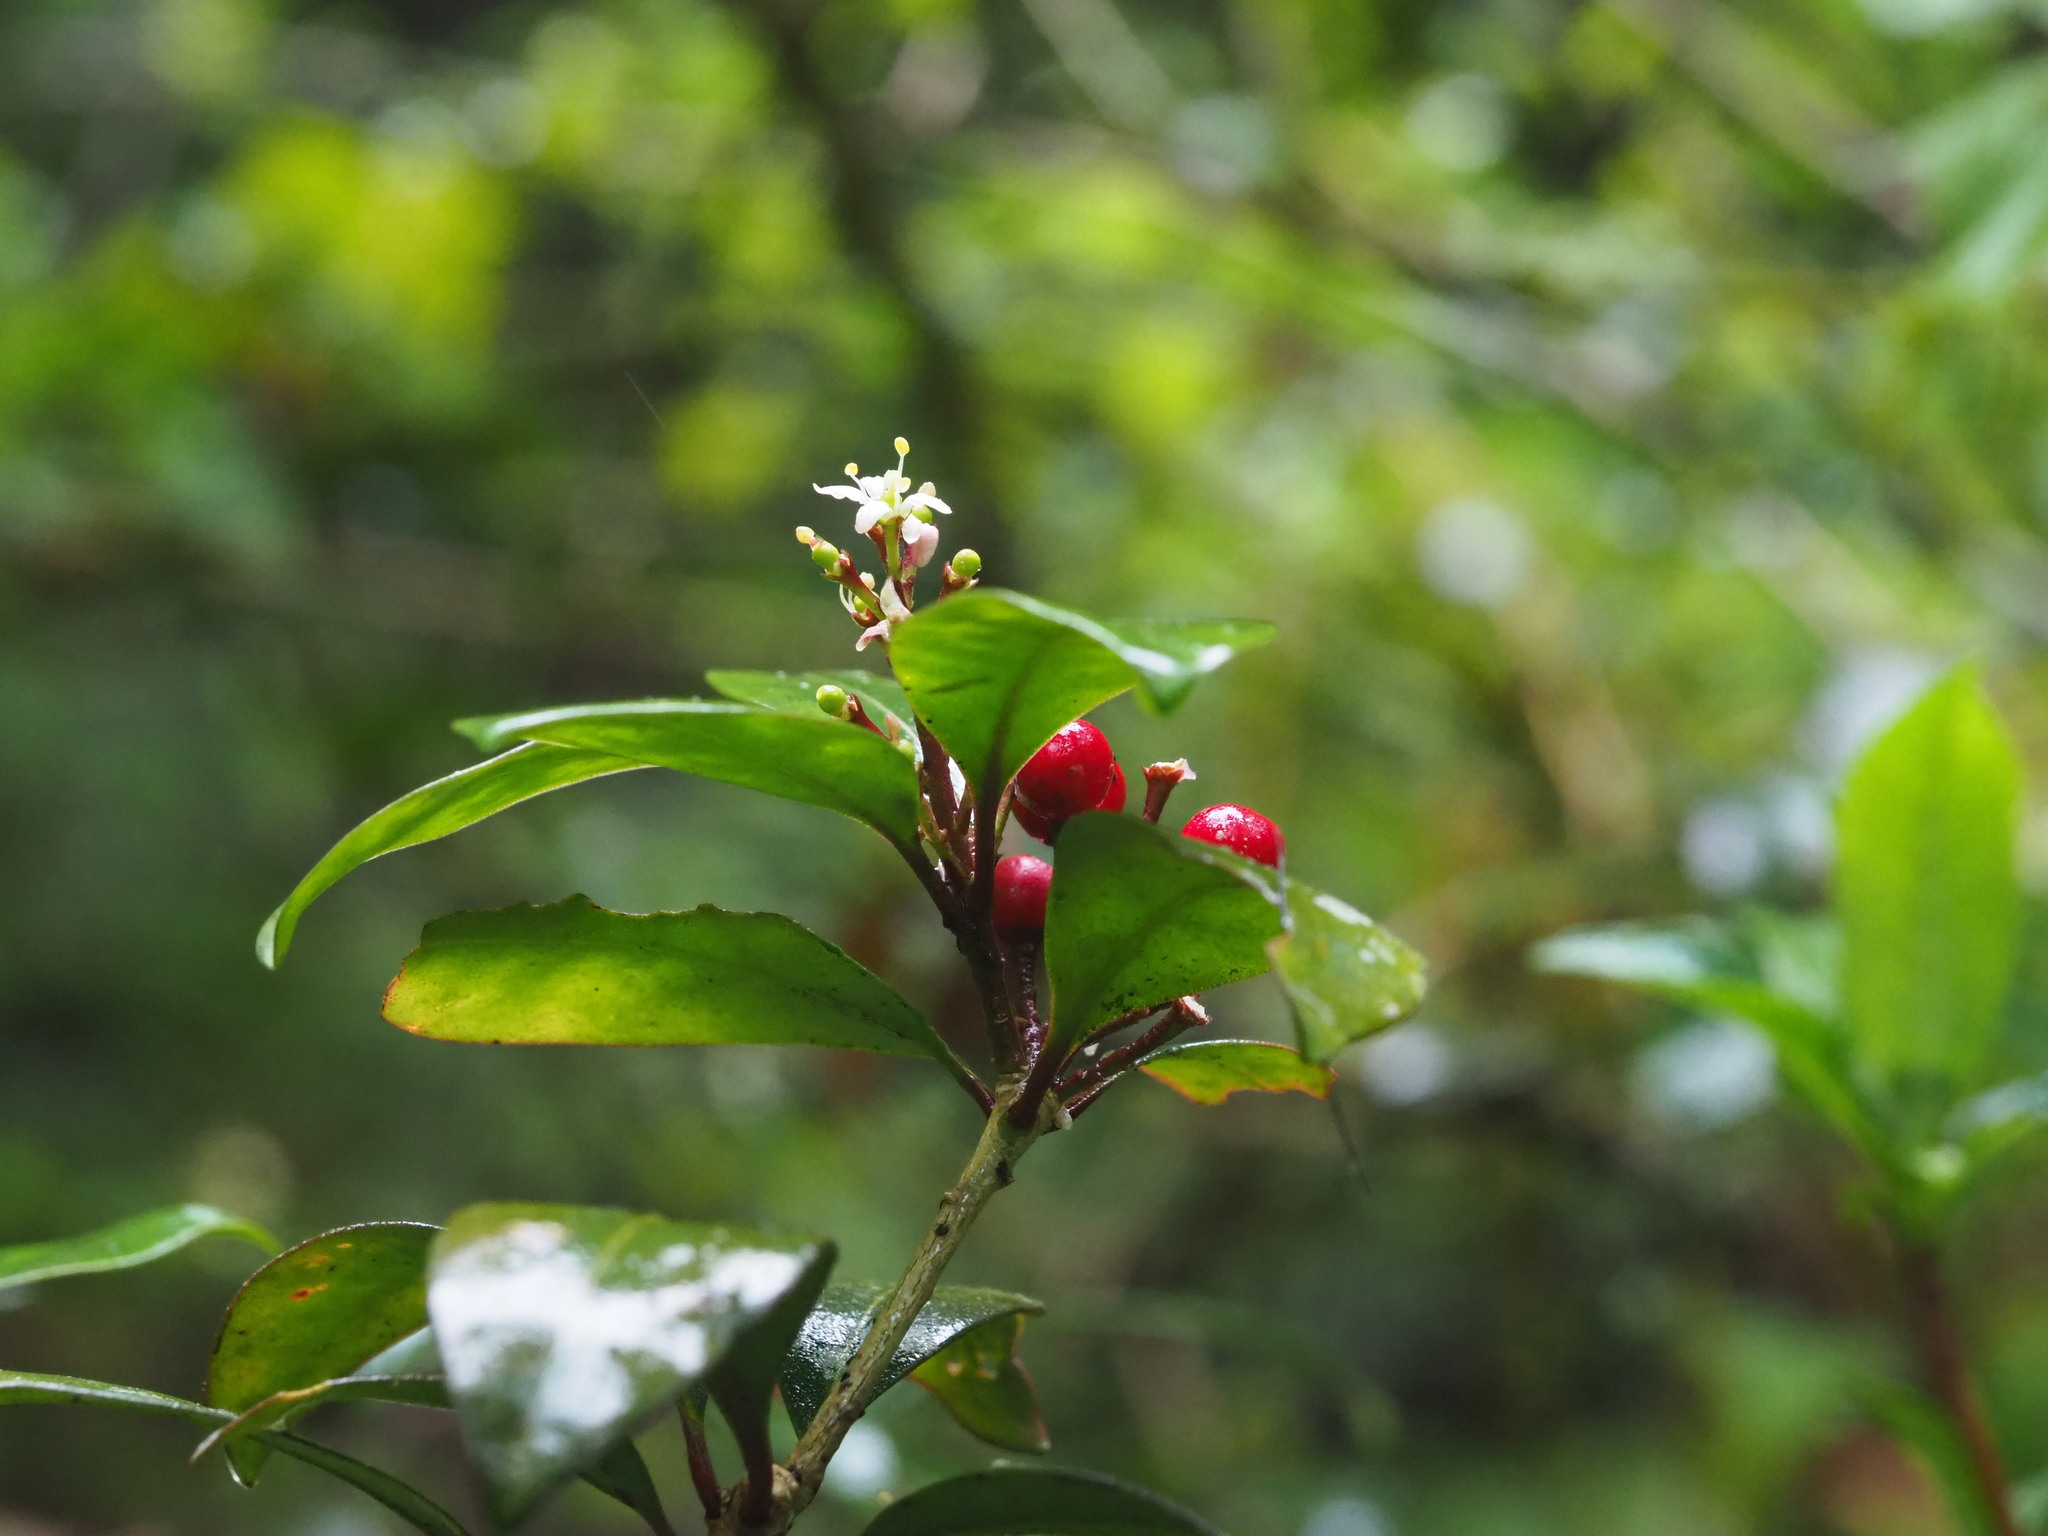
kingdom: Plantae
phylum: Tracheophyta
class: Magnoliopsida
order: Sapindales
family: Rutaceae
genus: Skimmia
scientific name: Skimmia japonica
